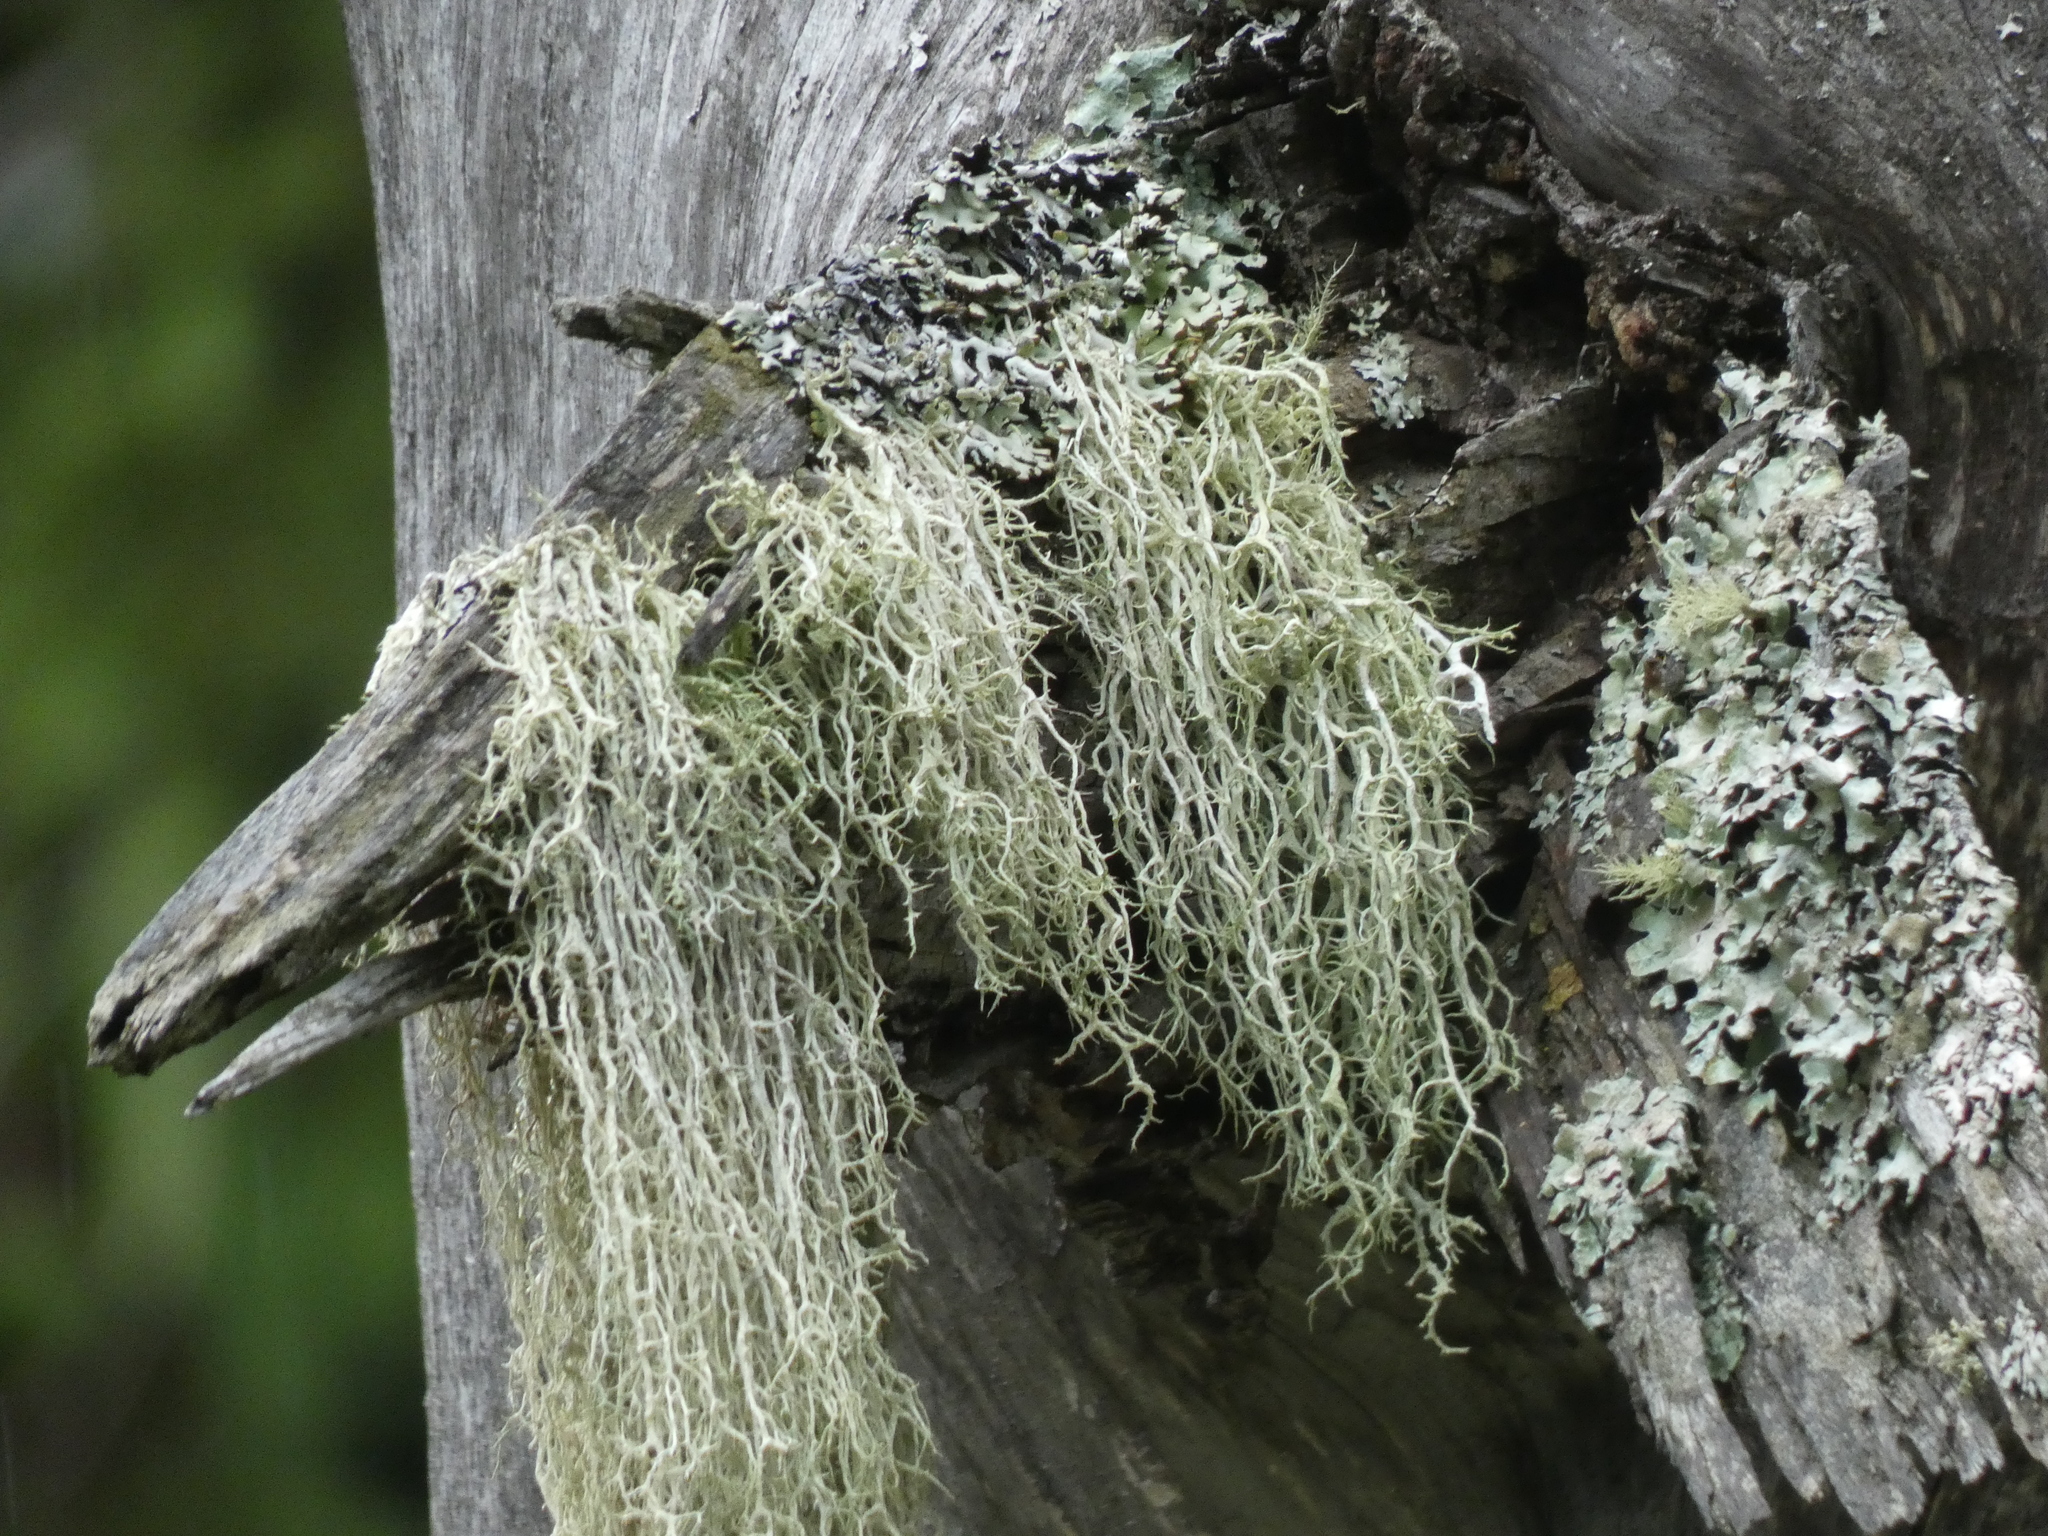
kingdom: Fungi
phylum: Ascomycota
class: Lecanoromycetes
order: Lecanorales
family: Parmeliaceae
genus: Evernia
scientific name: Evernia divaricata
